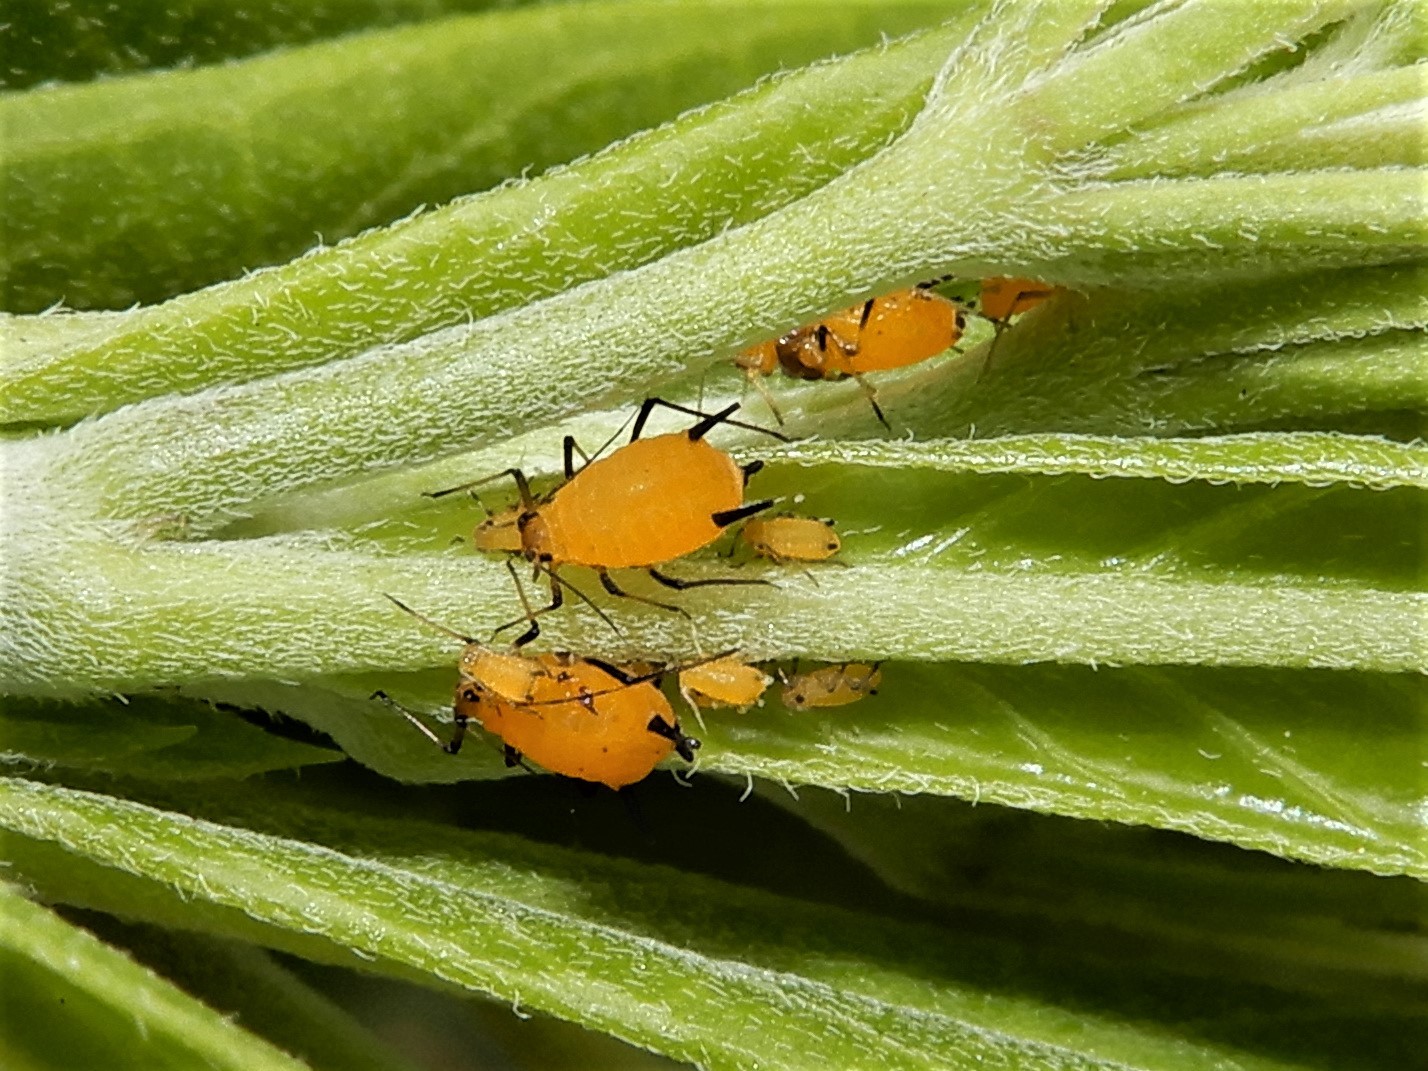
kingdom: Animalia
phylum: Arthropoda
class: Insecta
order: Hemiptera
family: Aphididae
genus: Aphis
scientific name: Aphis nerii
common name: Oleander aphid
